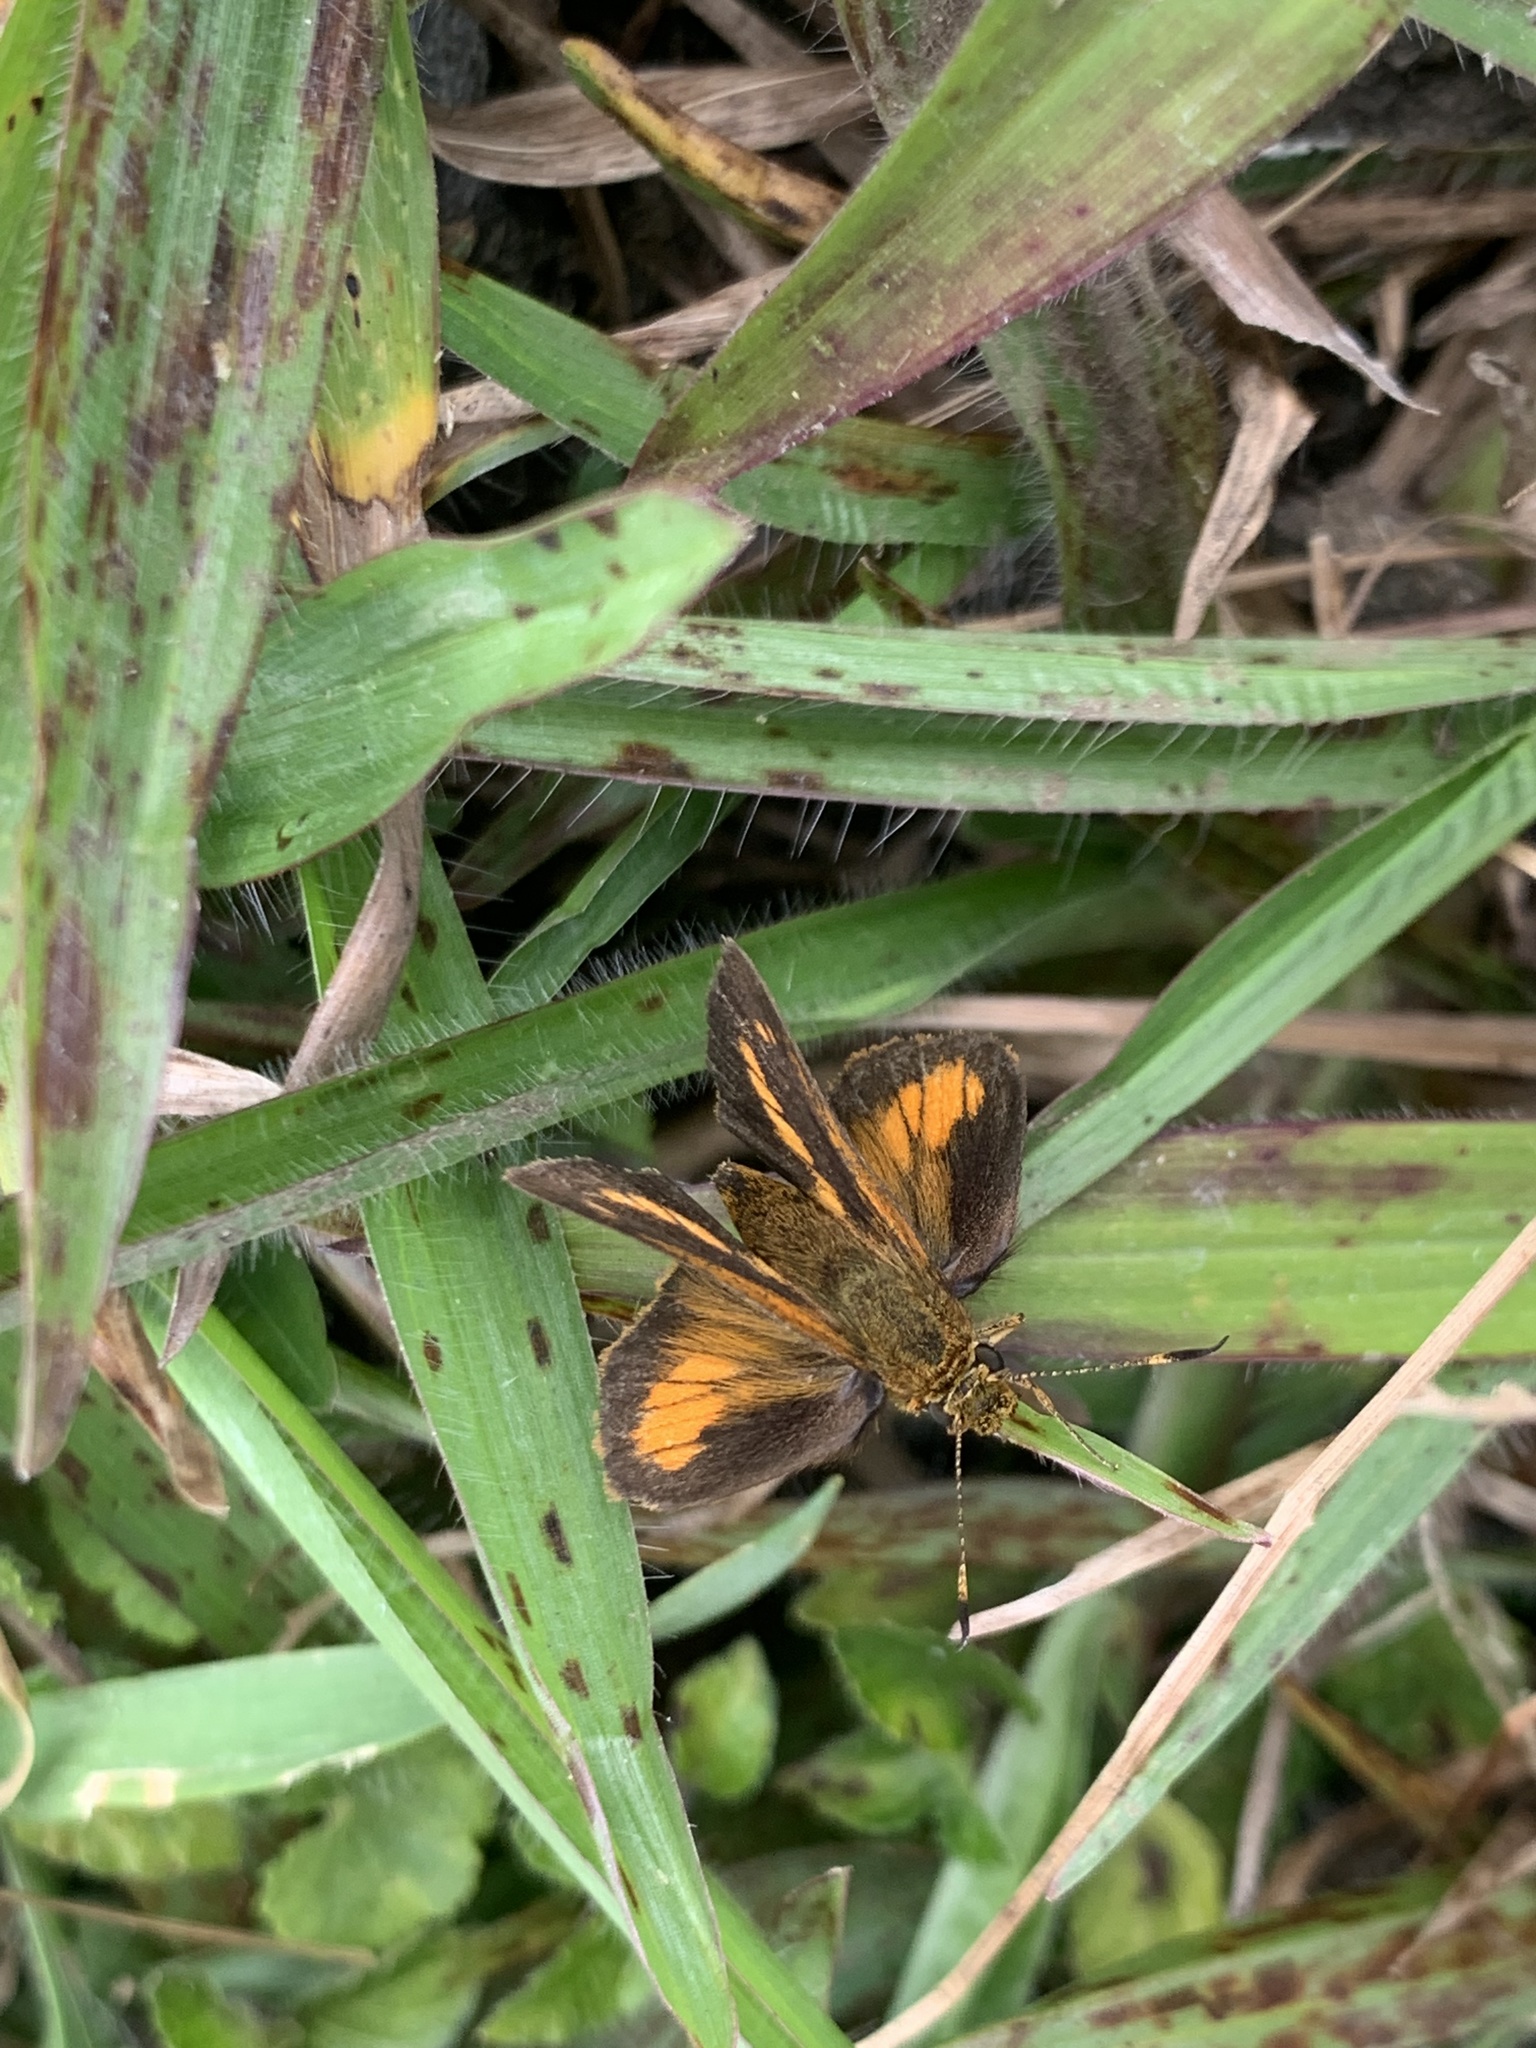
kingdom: Animalia
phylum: Arthropoda
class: Insecta
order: Lepidoptera
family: Hesperiidae
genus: Corticea
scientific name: Corticea mendica
